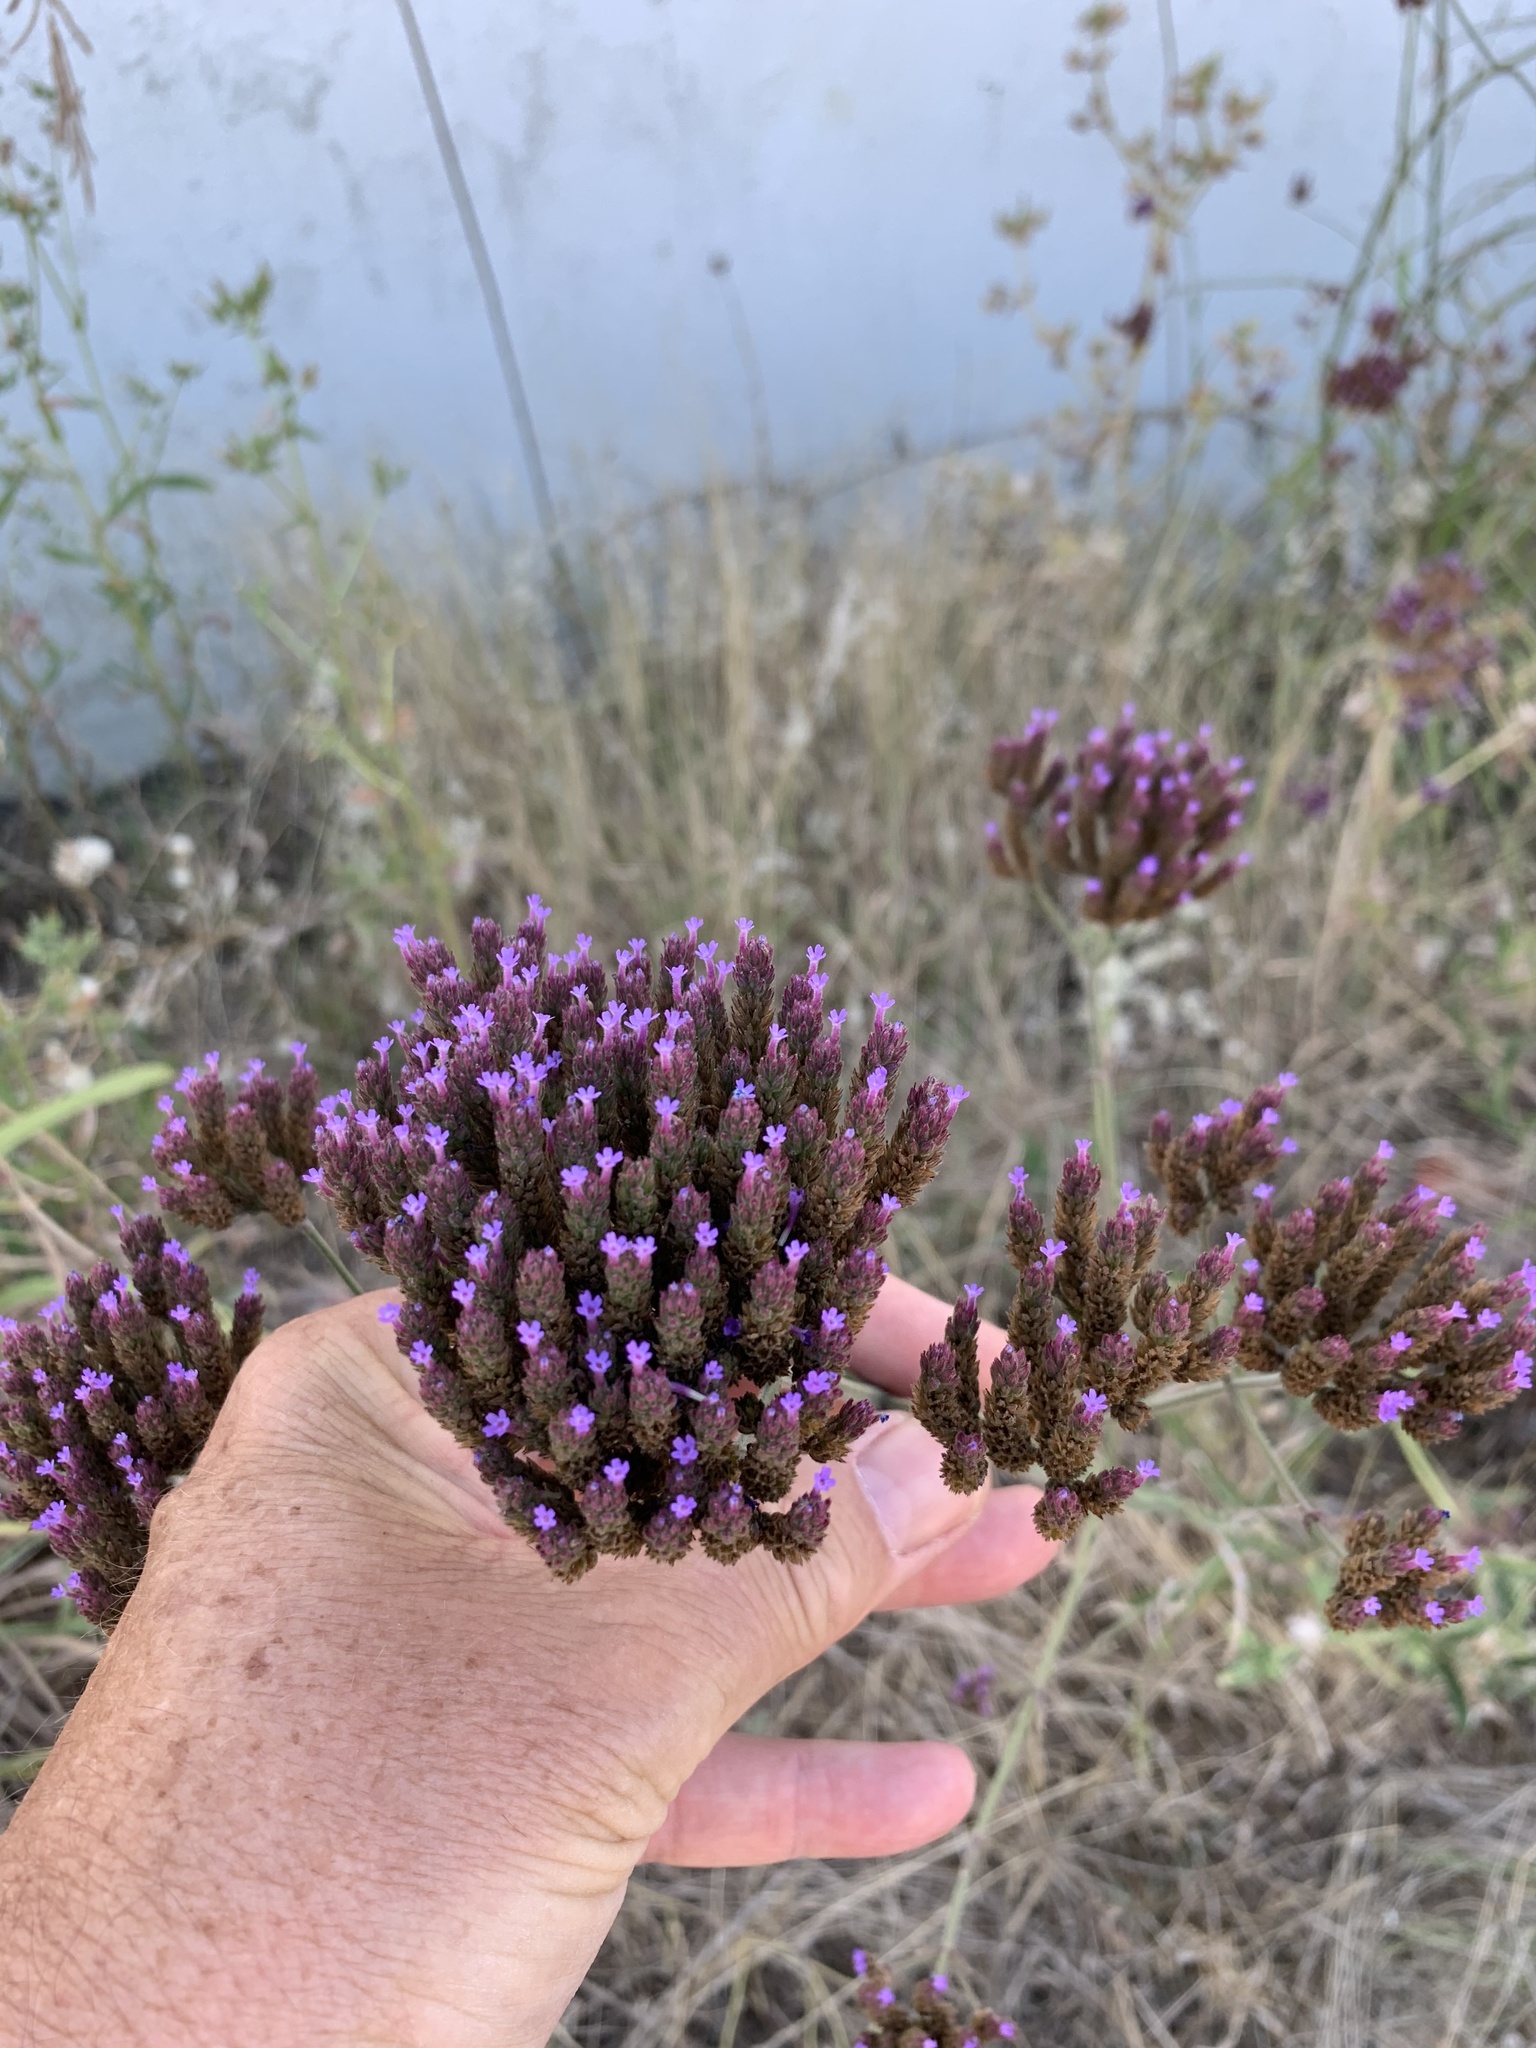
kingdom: Plantae
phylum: Tracheophyta
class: Magnoliopsida
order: Lamiales
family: Verbenaceae
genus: Verbena
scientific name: Verbena bonariensis
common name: Purpletop vervain
